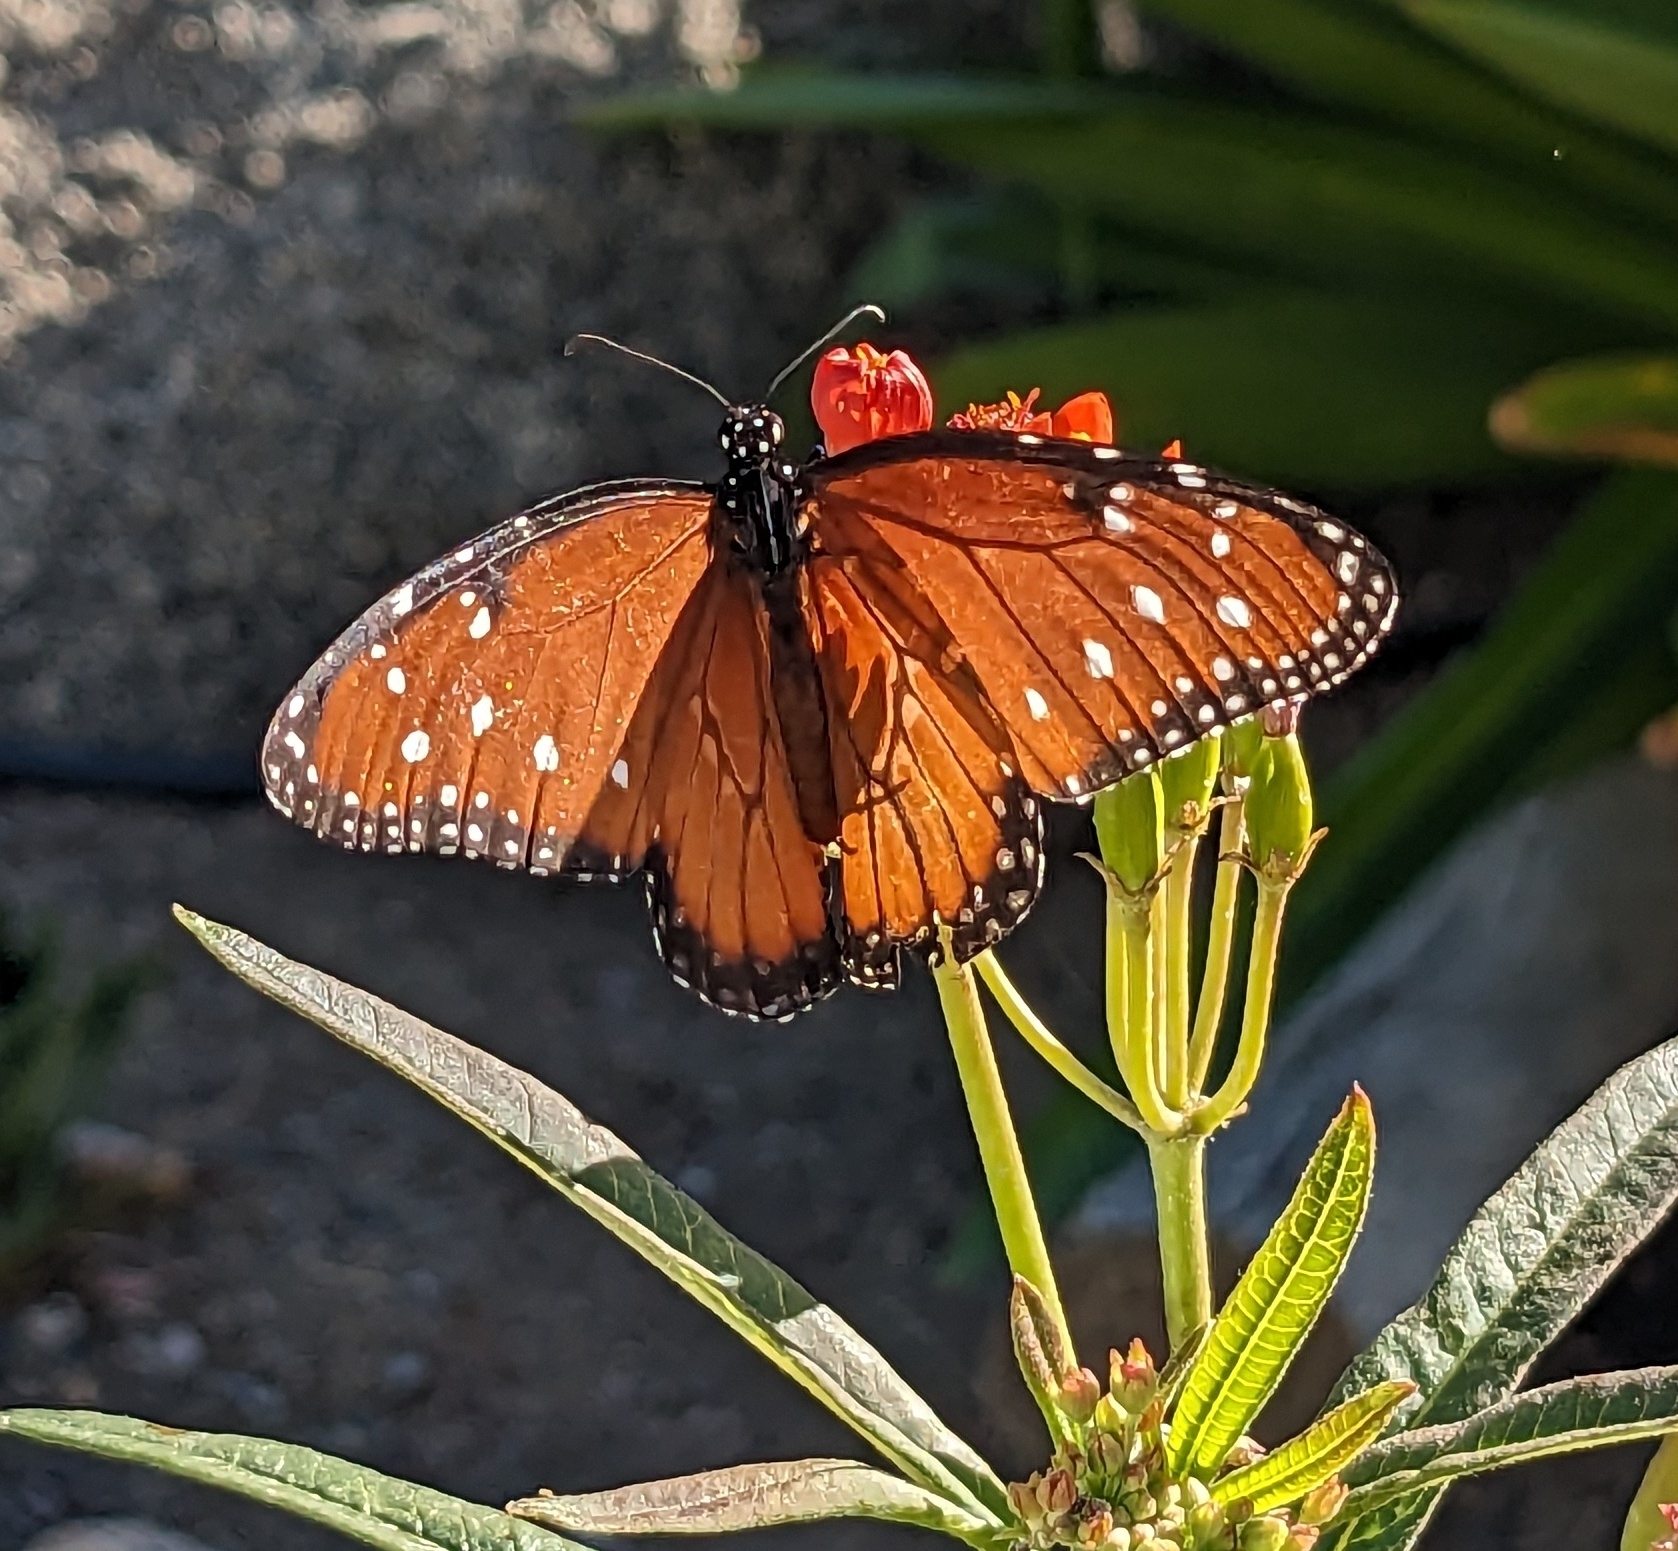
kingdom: Animalia
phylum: Arthropoda
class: Insecta
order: Lepidoptera
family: Nymphalidae
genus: Danaus
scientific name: Danaus gilippus
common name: Queen
